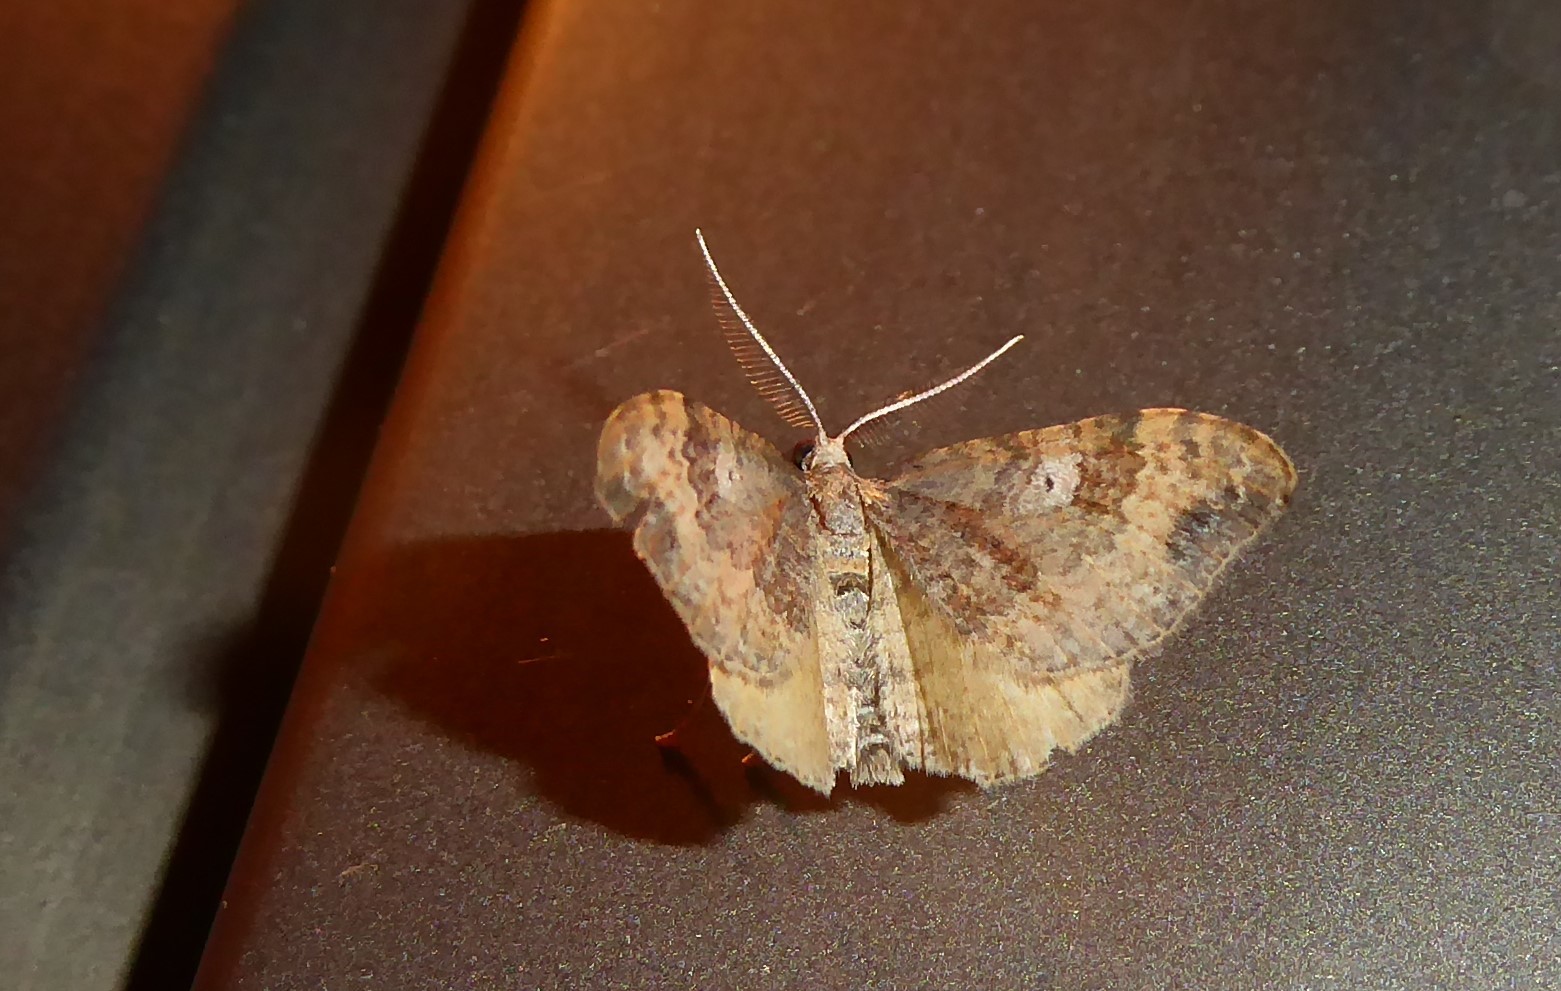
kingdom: Animalia
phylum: Arthropoda
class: Insecta
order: Lepidoptera
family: Geometridae
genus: Homodotis
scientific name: Homodotis megaspilata
